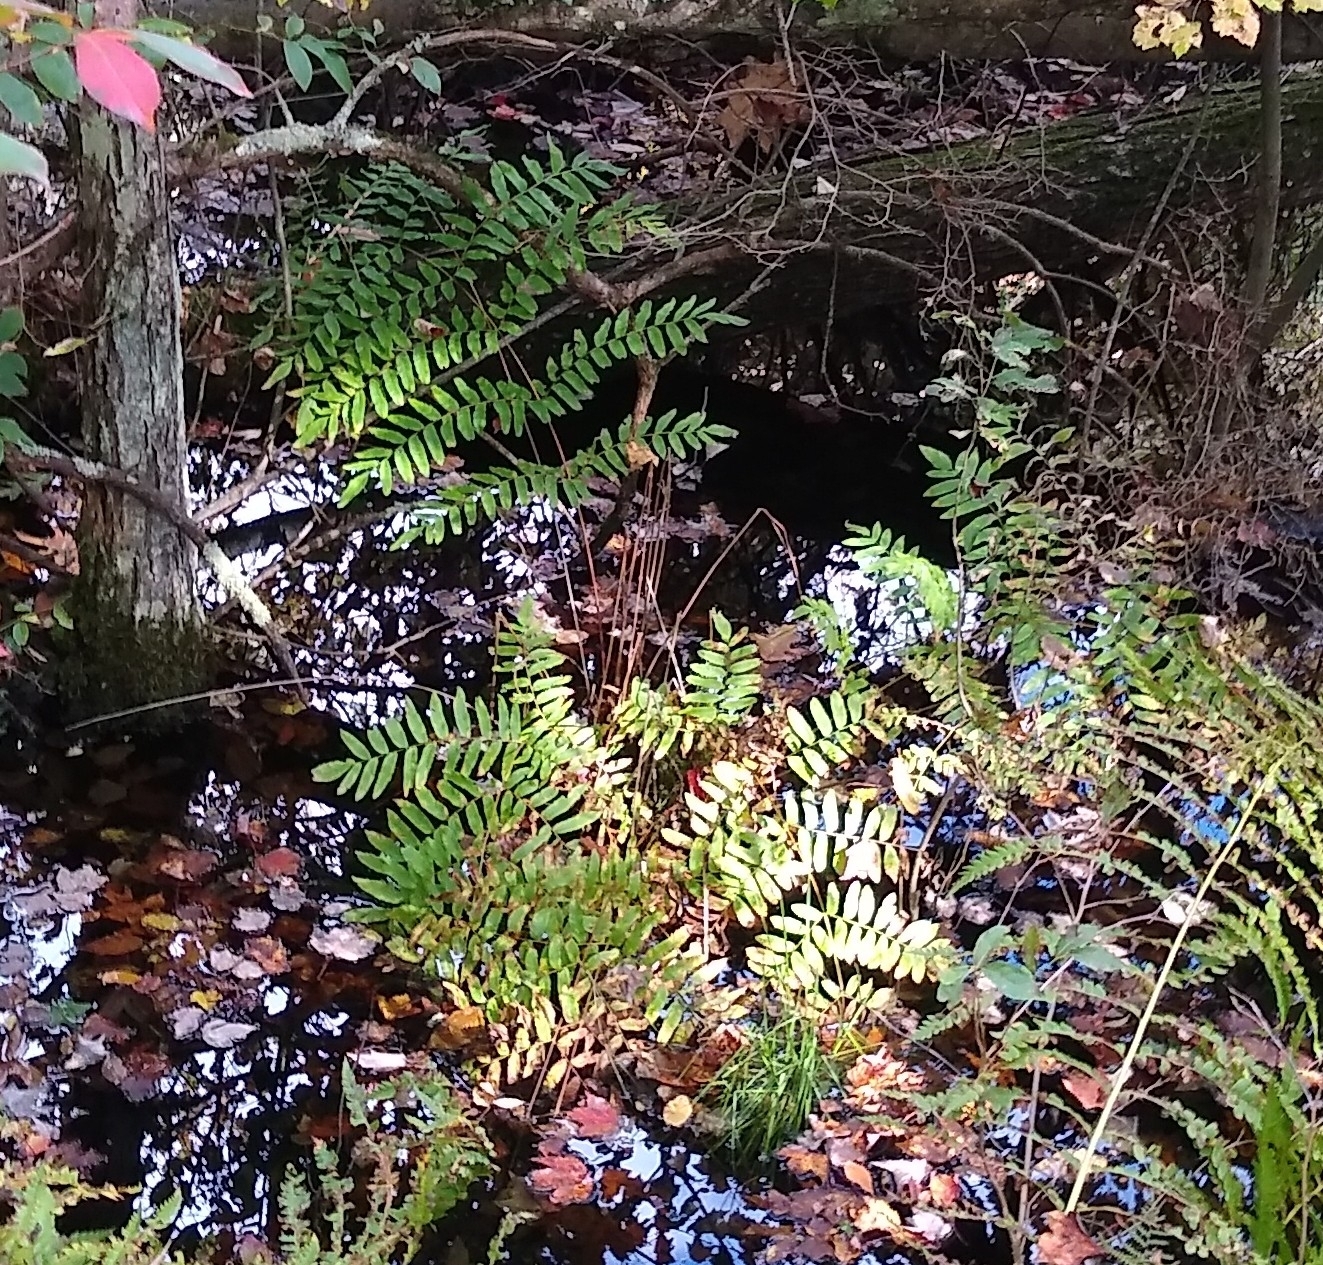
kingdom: Plantae
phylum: Tracheophyta
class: Polypodiopsida
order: Osmundales
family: Osmundaceae
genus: Osmunda
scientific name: Osmunda spectabilis
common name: American royal fern
